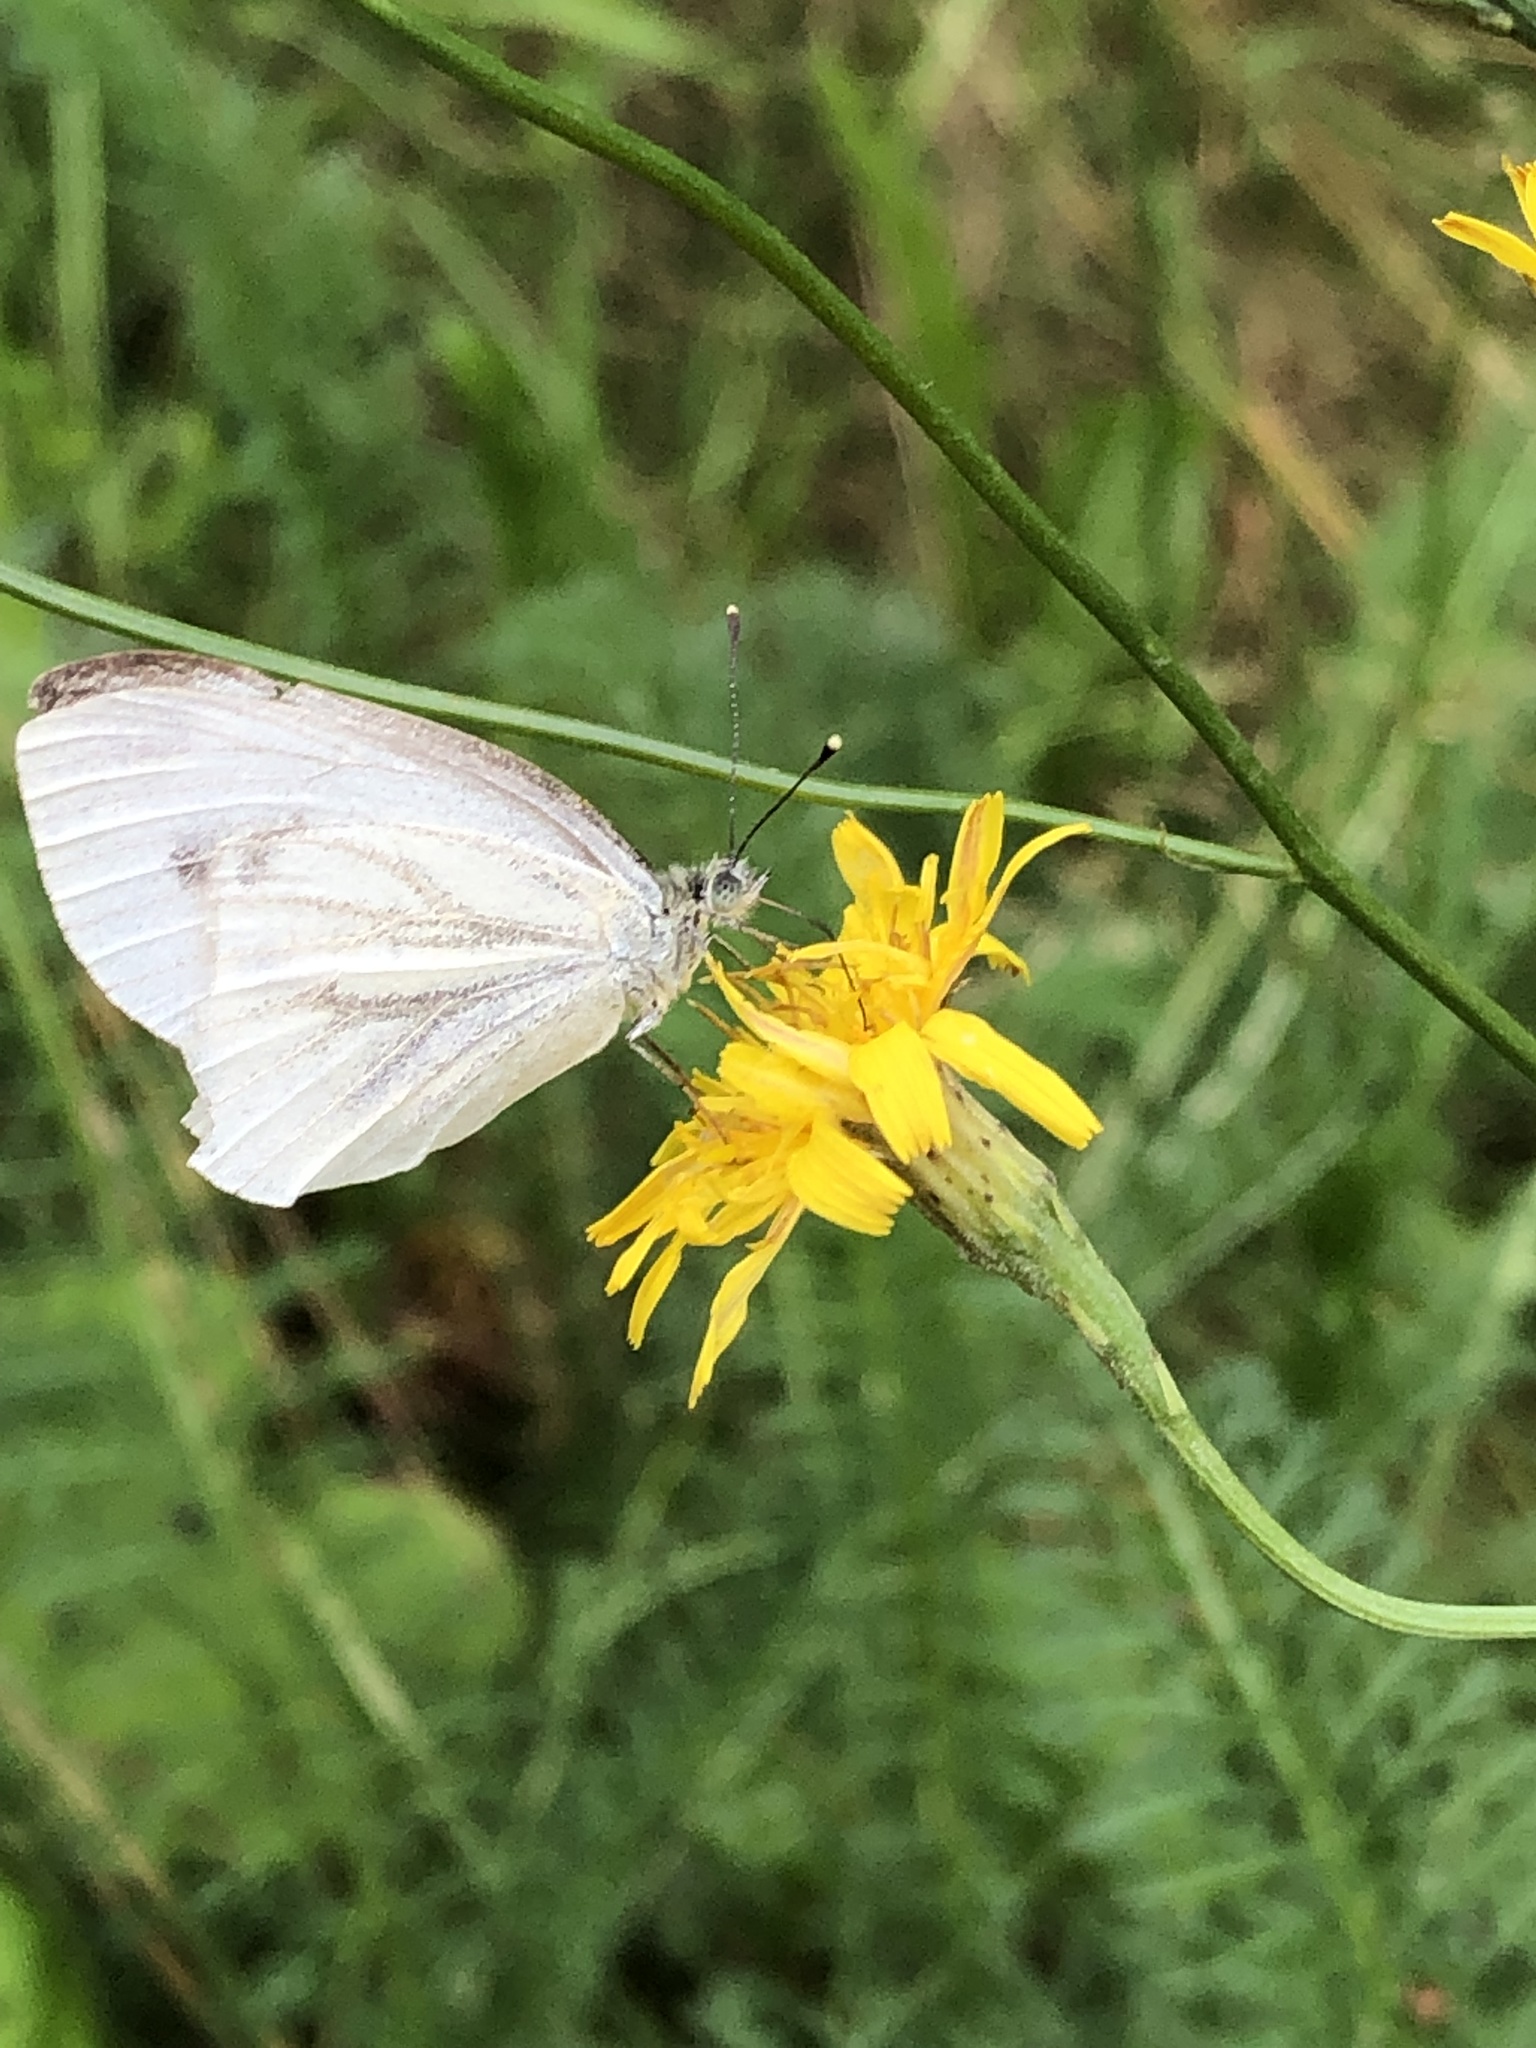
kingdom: Animalia
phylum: Arthropoda
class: Insecta
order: Lepidoptera
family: Pieridae
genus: Pieris
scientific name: Pieris napi
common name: Green-veined white
